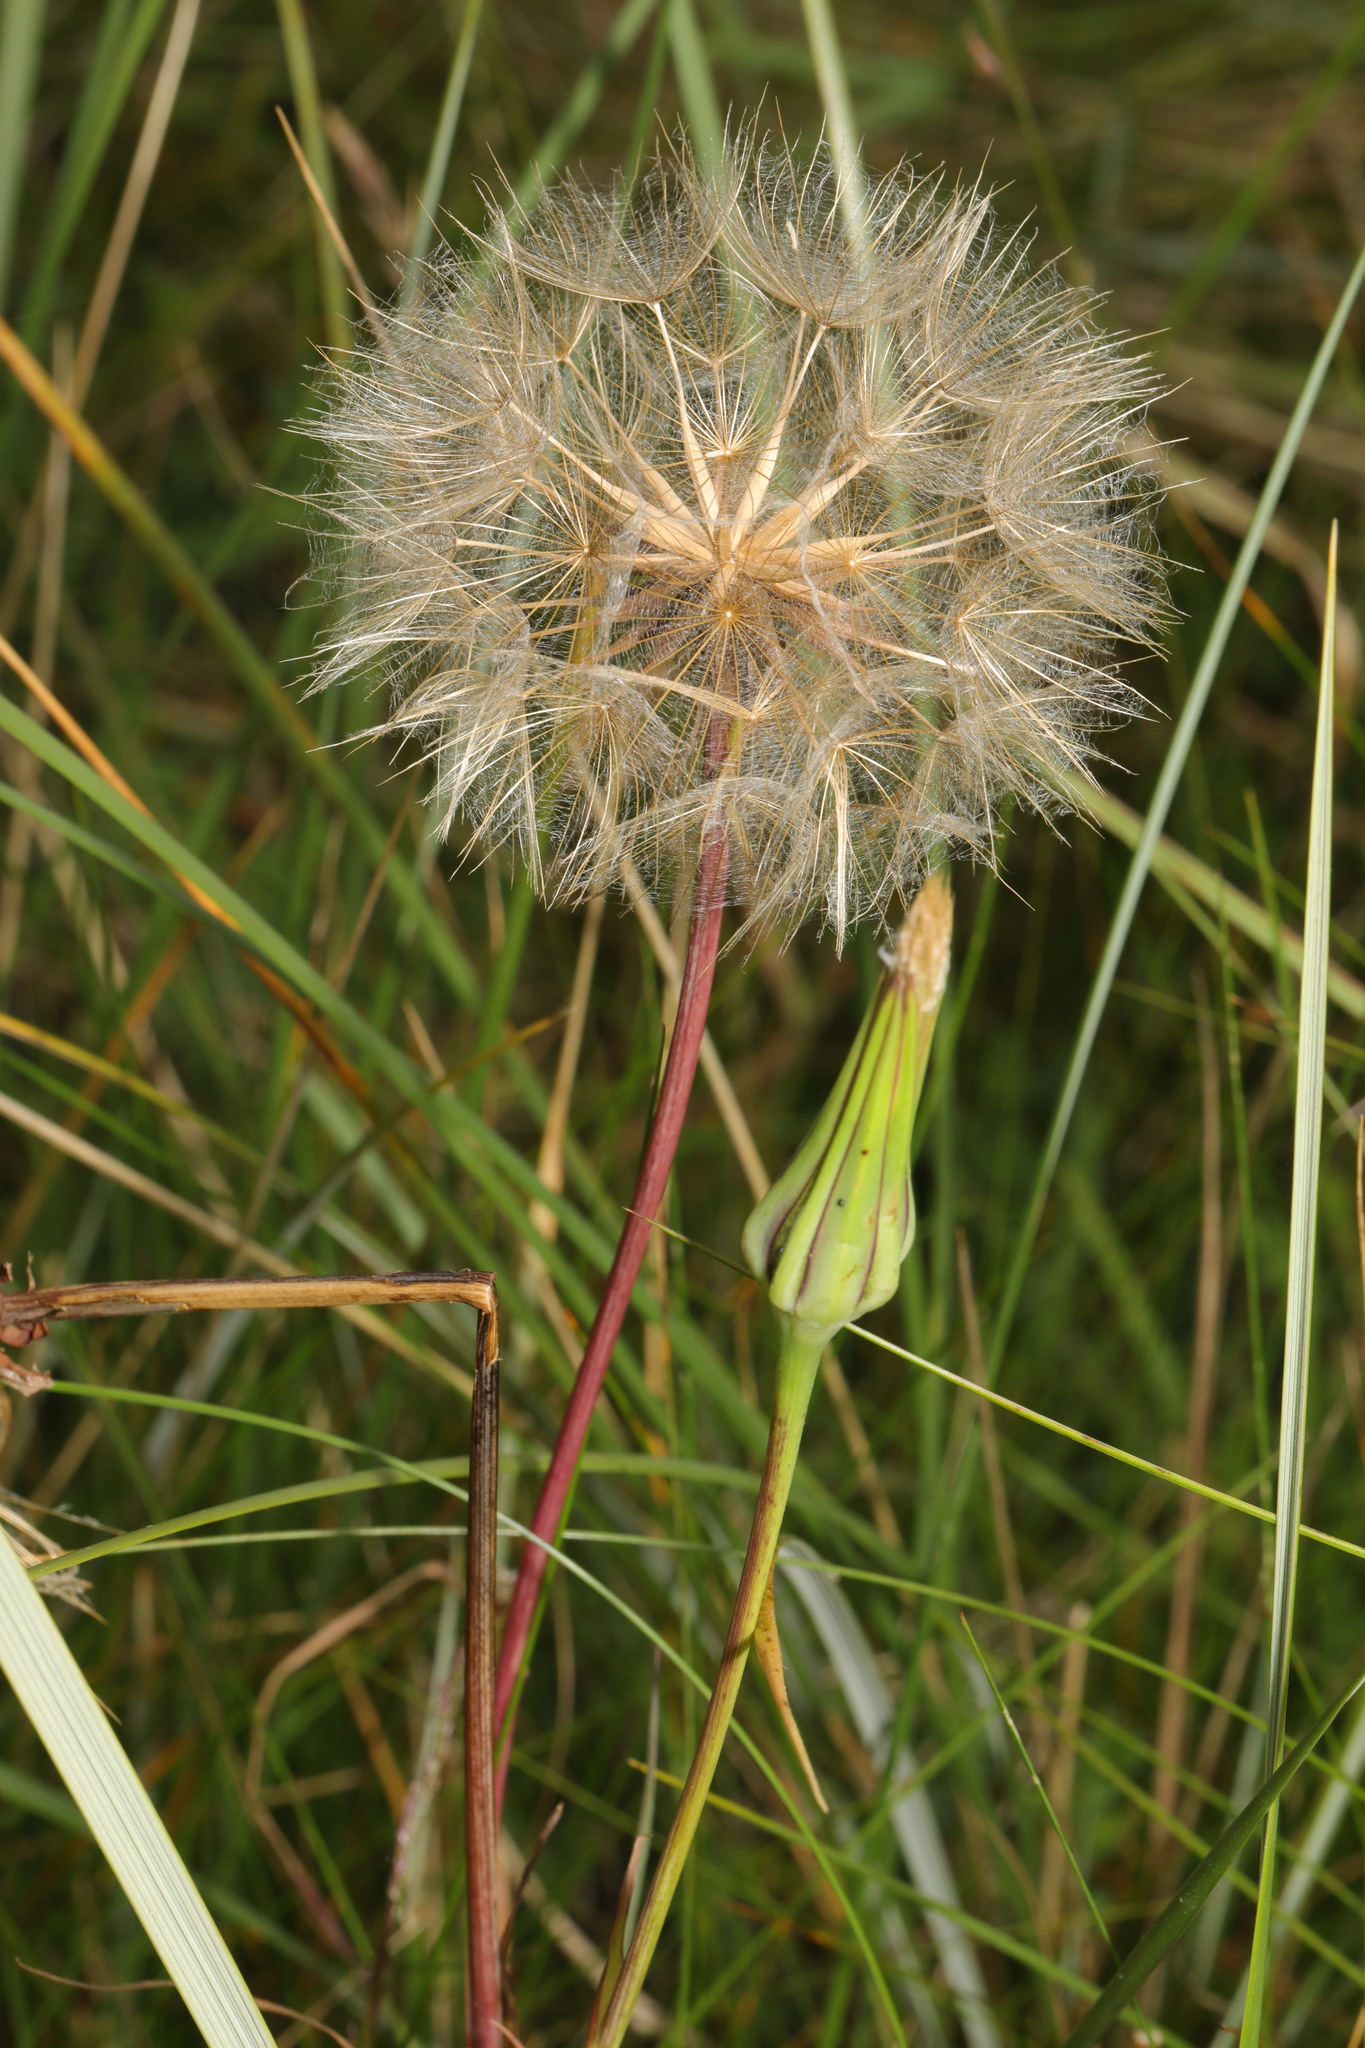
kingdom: Plantae
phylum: Tracheophyta
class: Magnoliopsida
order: Asterales
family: Asteraceae
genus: Tragopogon
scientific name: Tragopogon pratensis
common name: Goat's-beard
